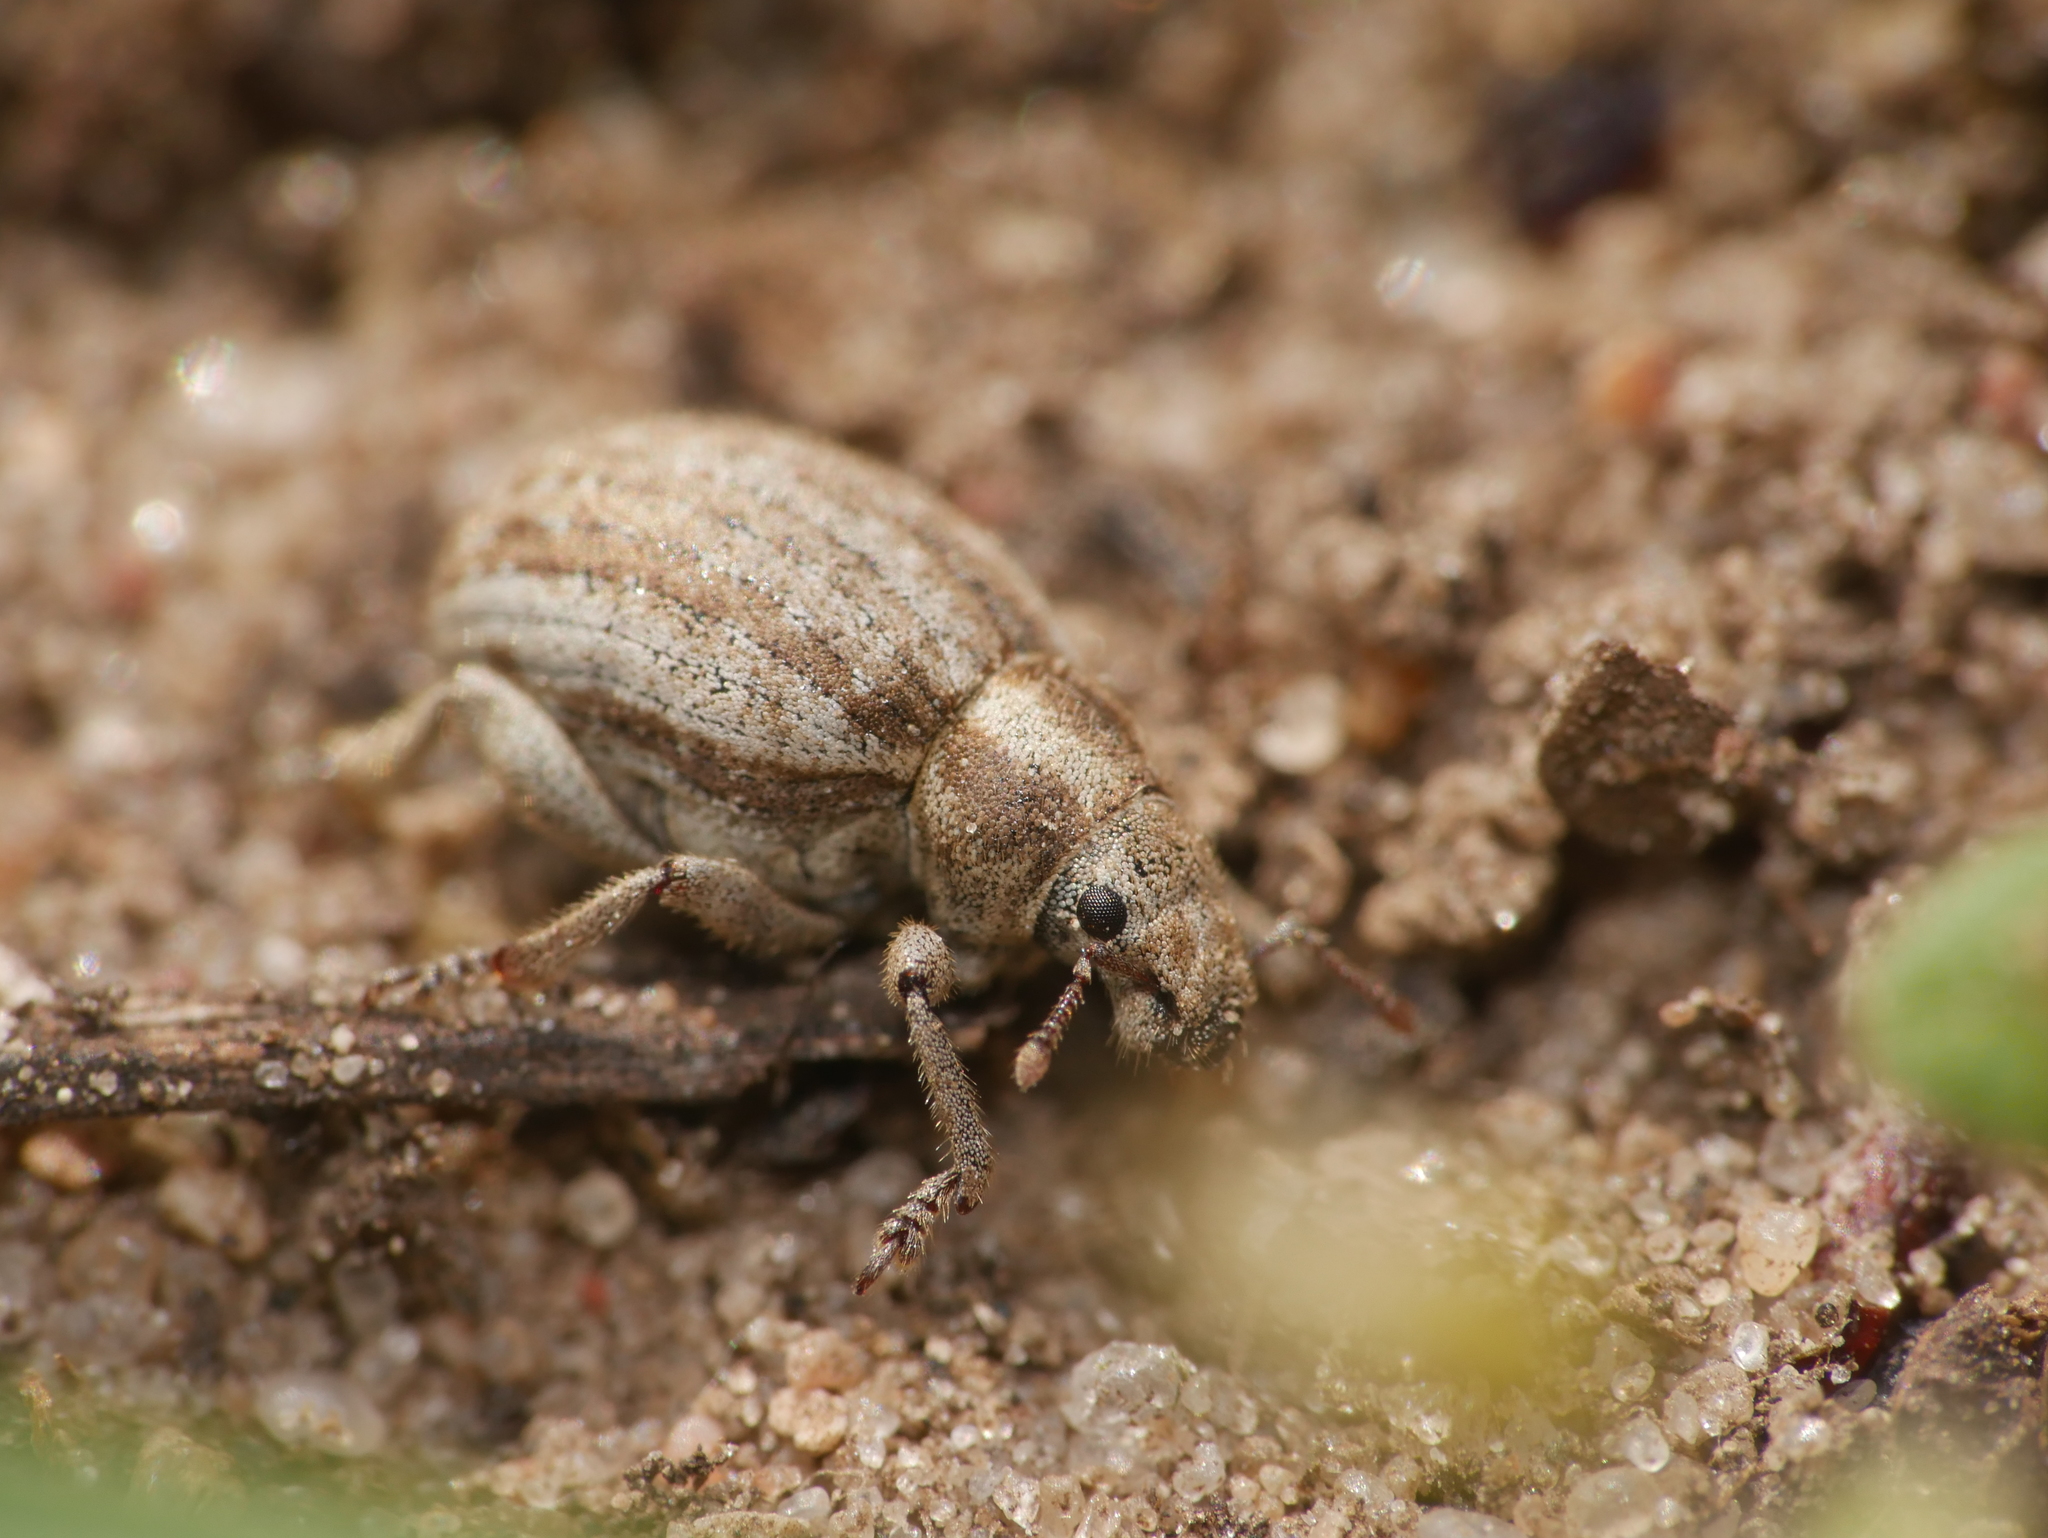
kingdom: Animalia
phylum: Arthropoda
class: Insecta
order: Coleoptera
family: Curculionidae
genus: Philopedon
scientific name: Philopedon plagiatum
